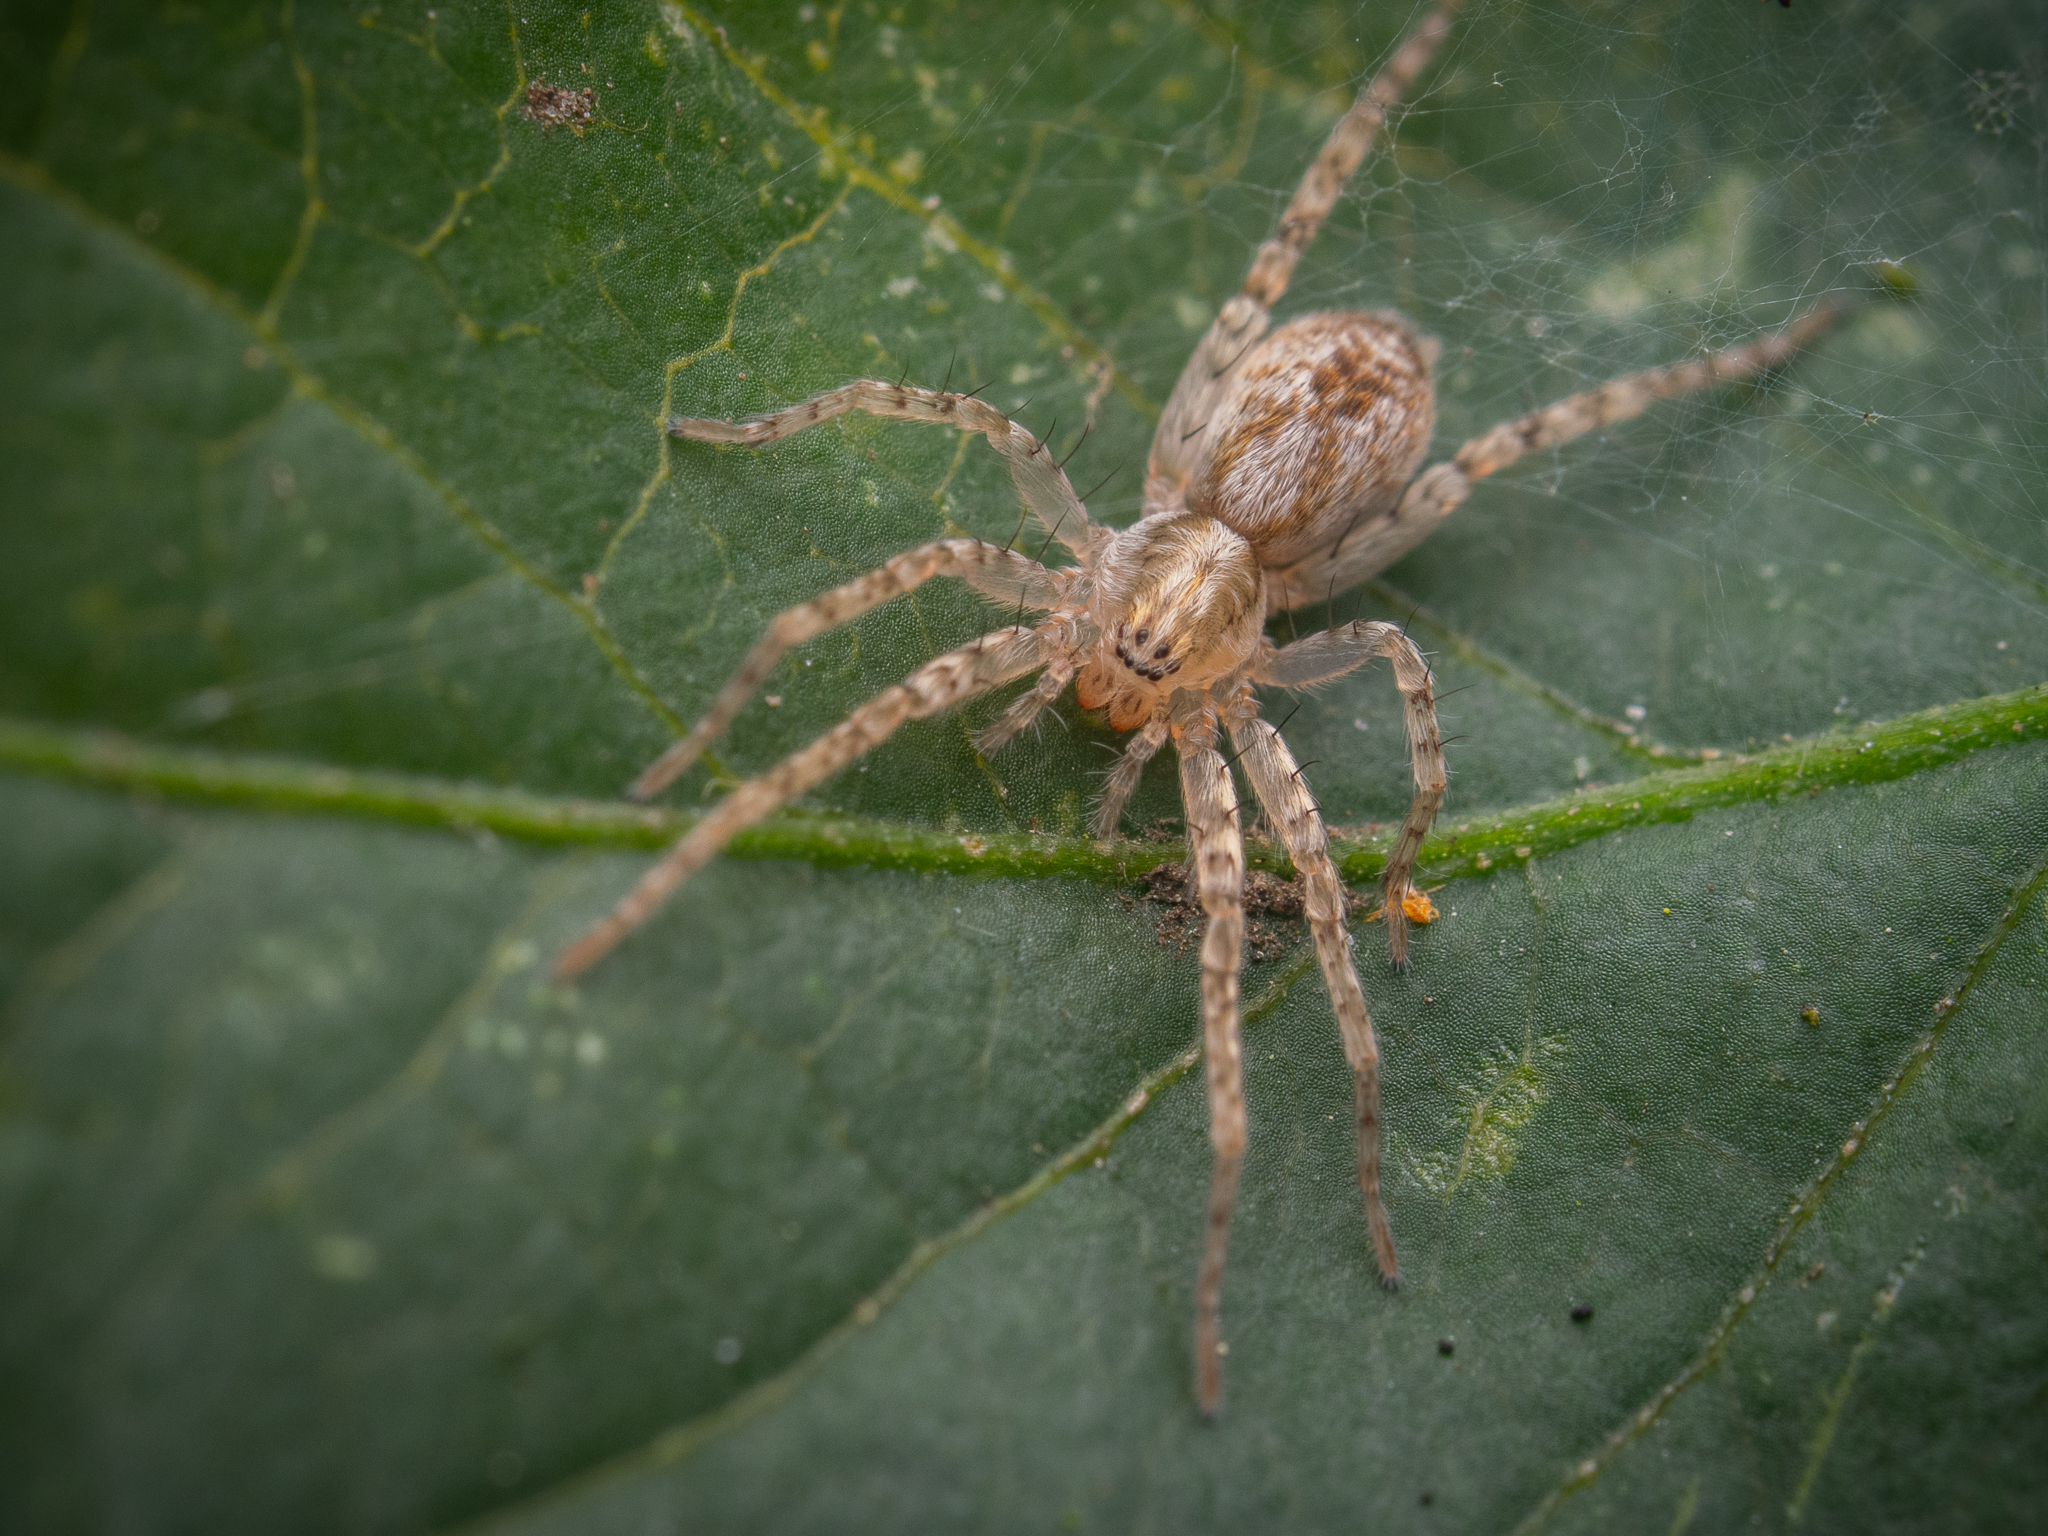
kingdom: Animalia
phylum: Arthropoda
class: Arachnida
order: Araneae
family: Anyphaenidae
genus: Anyphaena
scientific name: Anyphaena accentuata
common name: Buzzing spider
